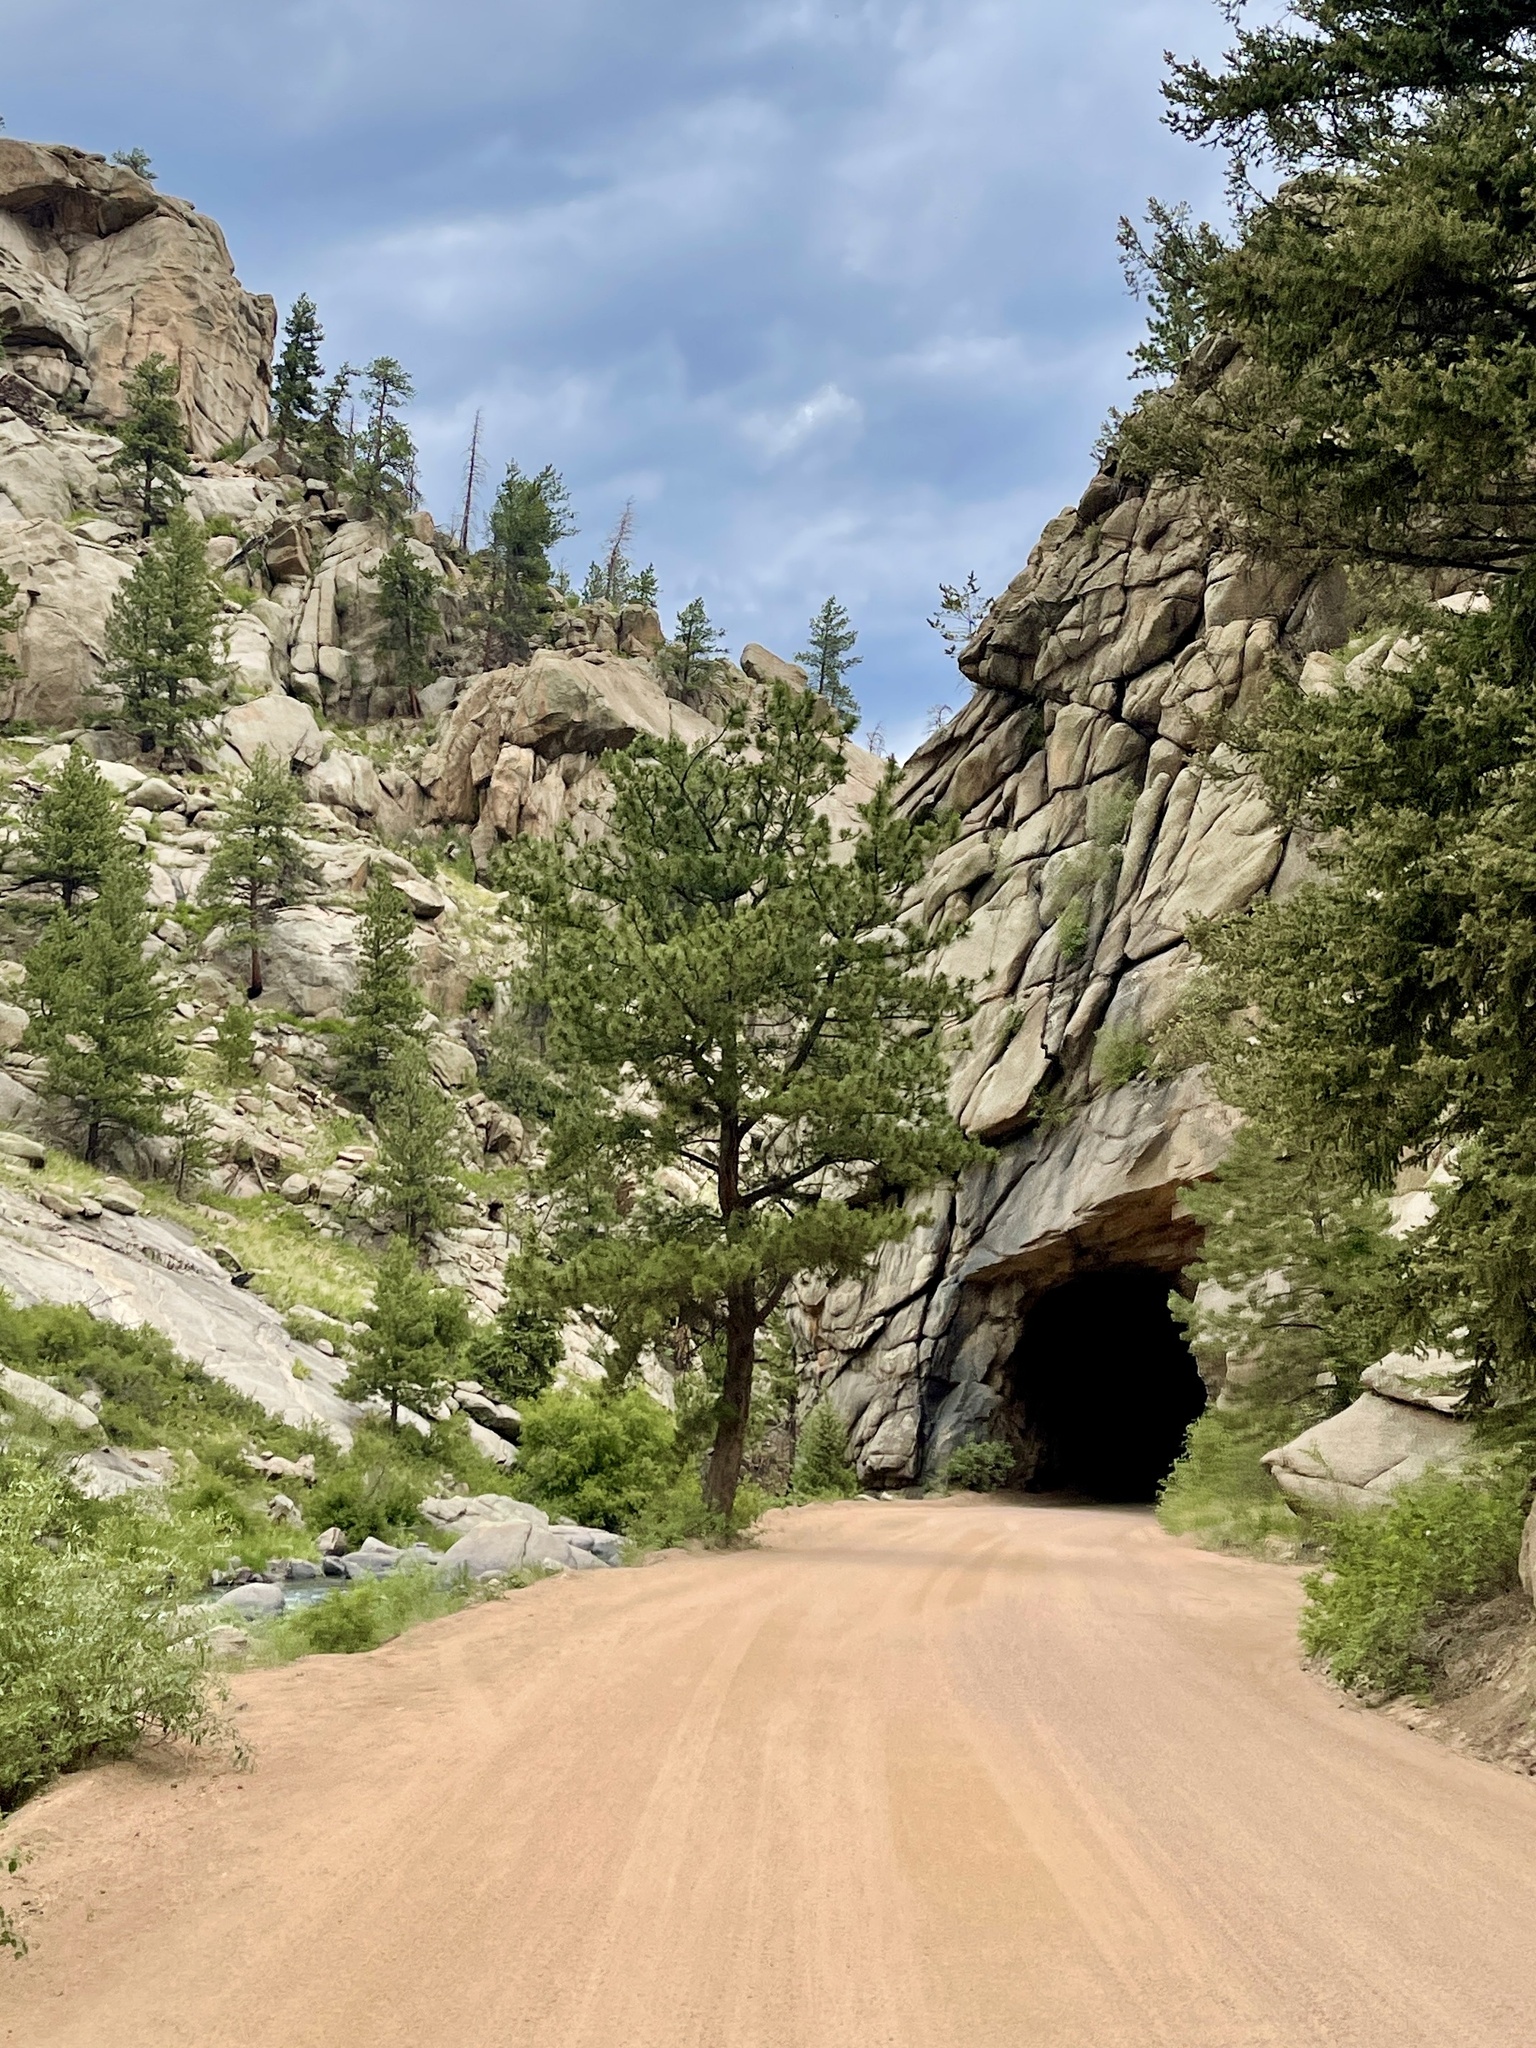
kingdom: Plantae
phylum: Tracheophyta
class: Pinopsida
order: Pinales
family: Pinaceae
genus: Pinus
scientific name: Pinus ponderosa
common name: Western yellow-pine
